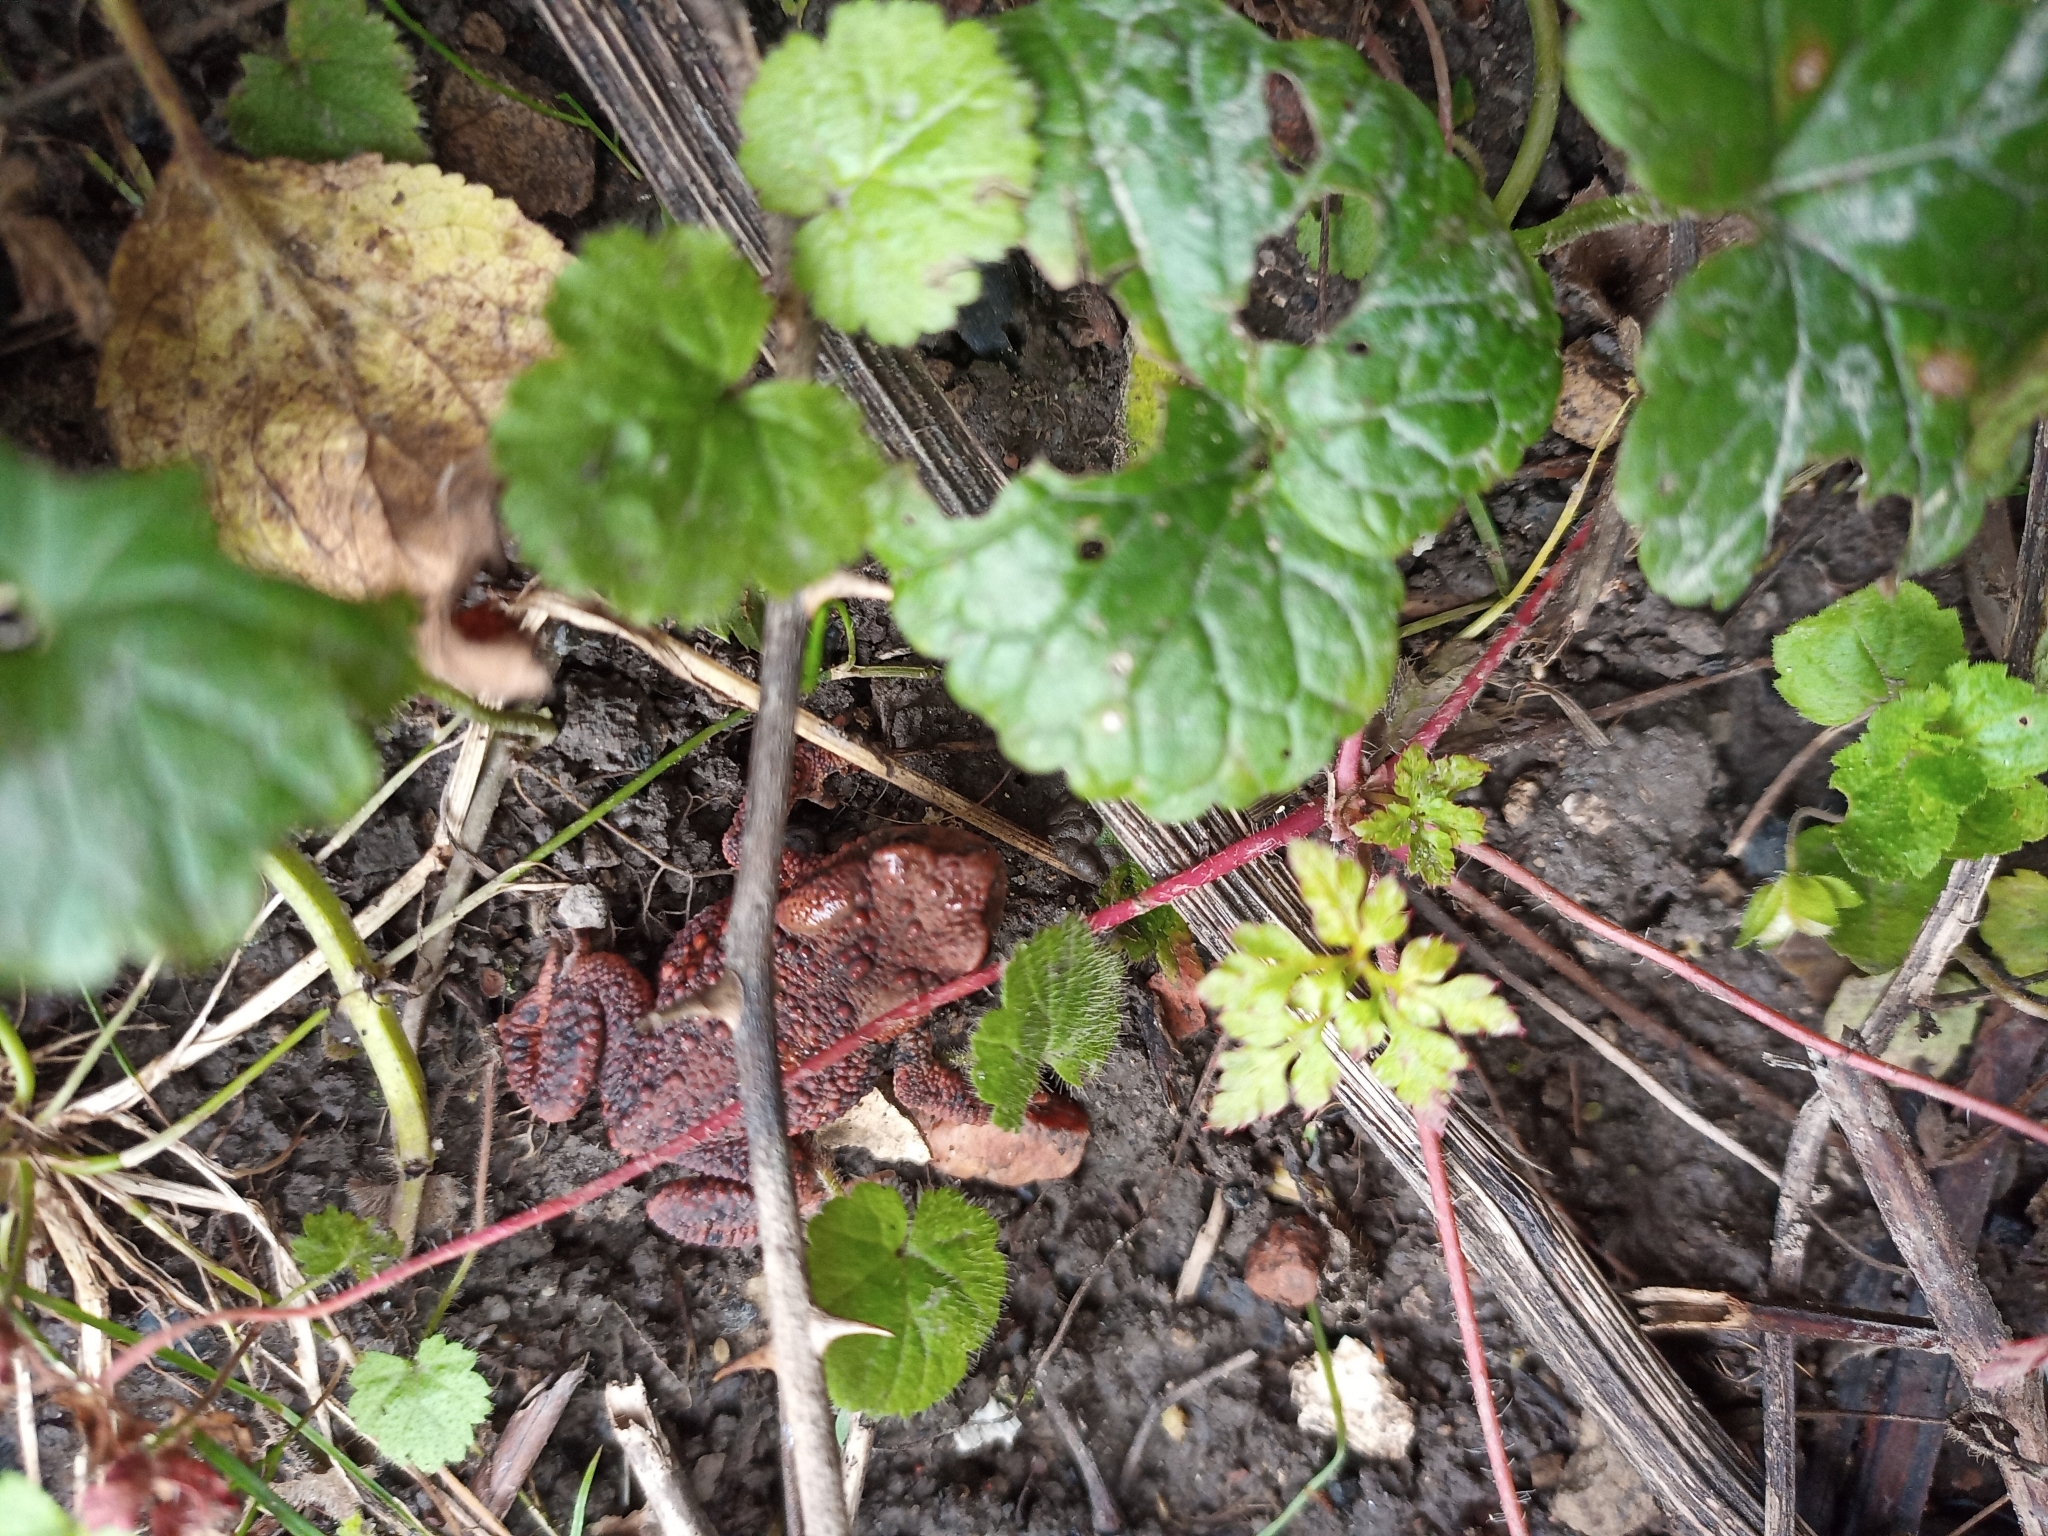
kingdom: Animalia
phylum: Chordata
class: Amphibia
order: Anura
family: Bufonidae
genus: Bufo
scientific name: Bufo bufo
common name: Common toad
